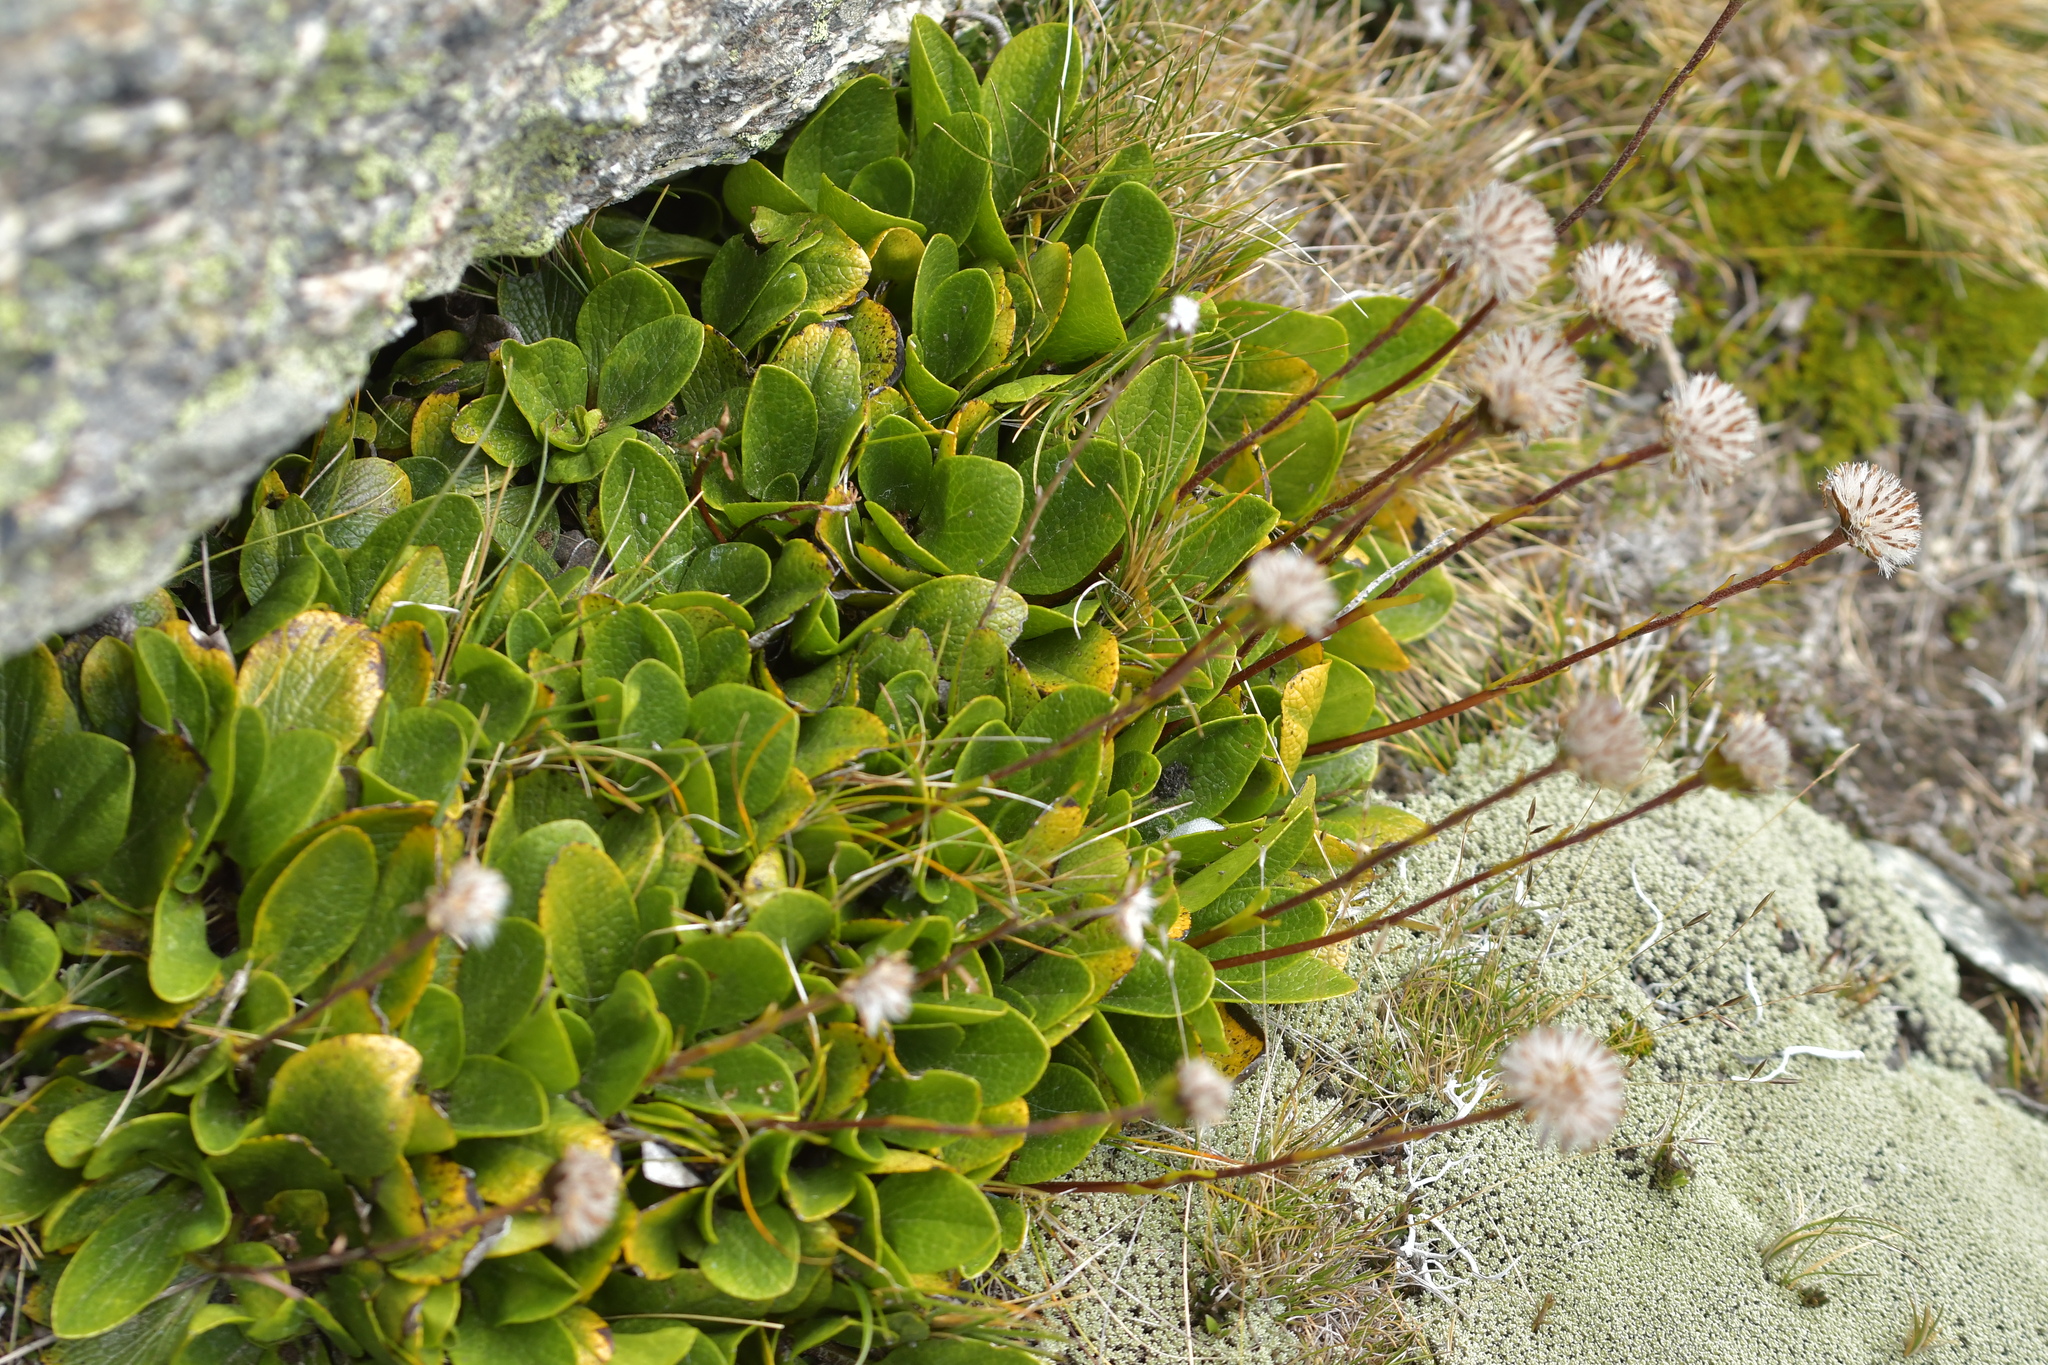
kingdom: Plantae
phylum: Tracheophyta
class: Magnoliopsida
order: Asterales
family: Asteraceae
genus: Brachyglottis
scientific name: Brachyglottis bellidioides
